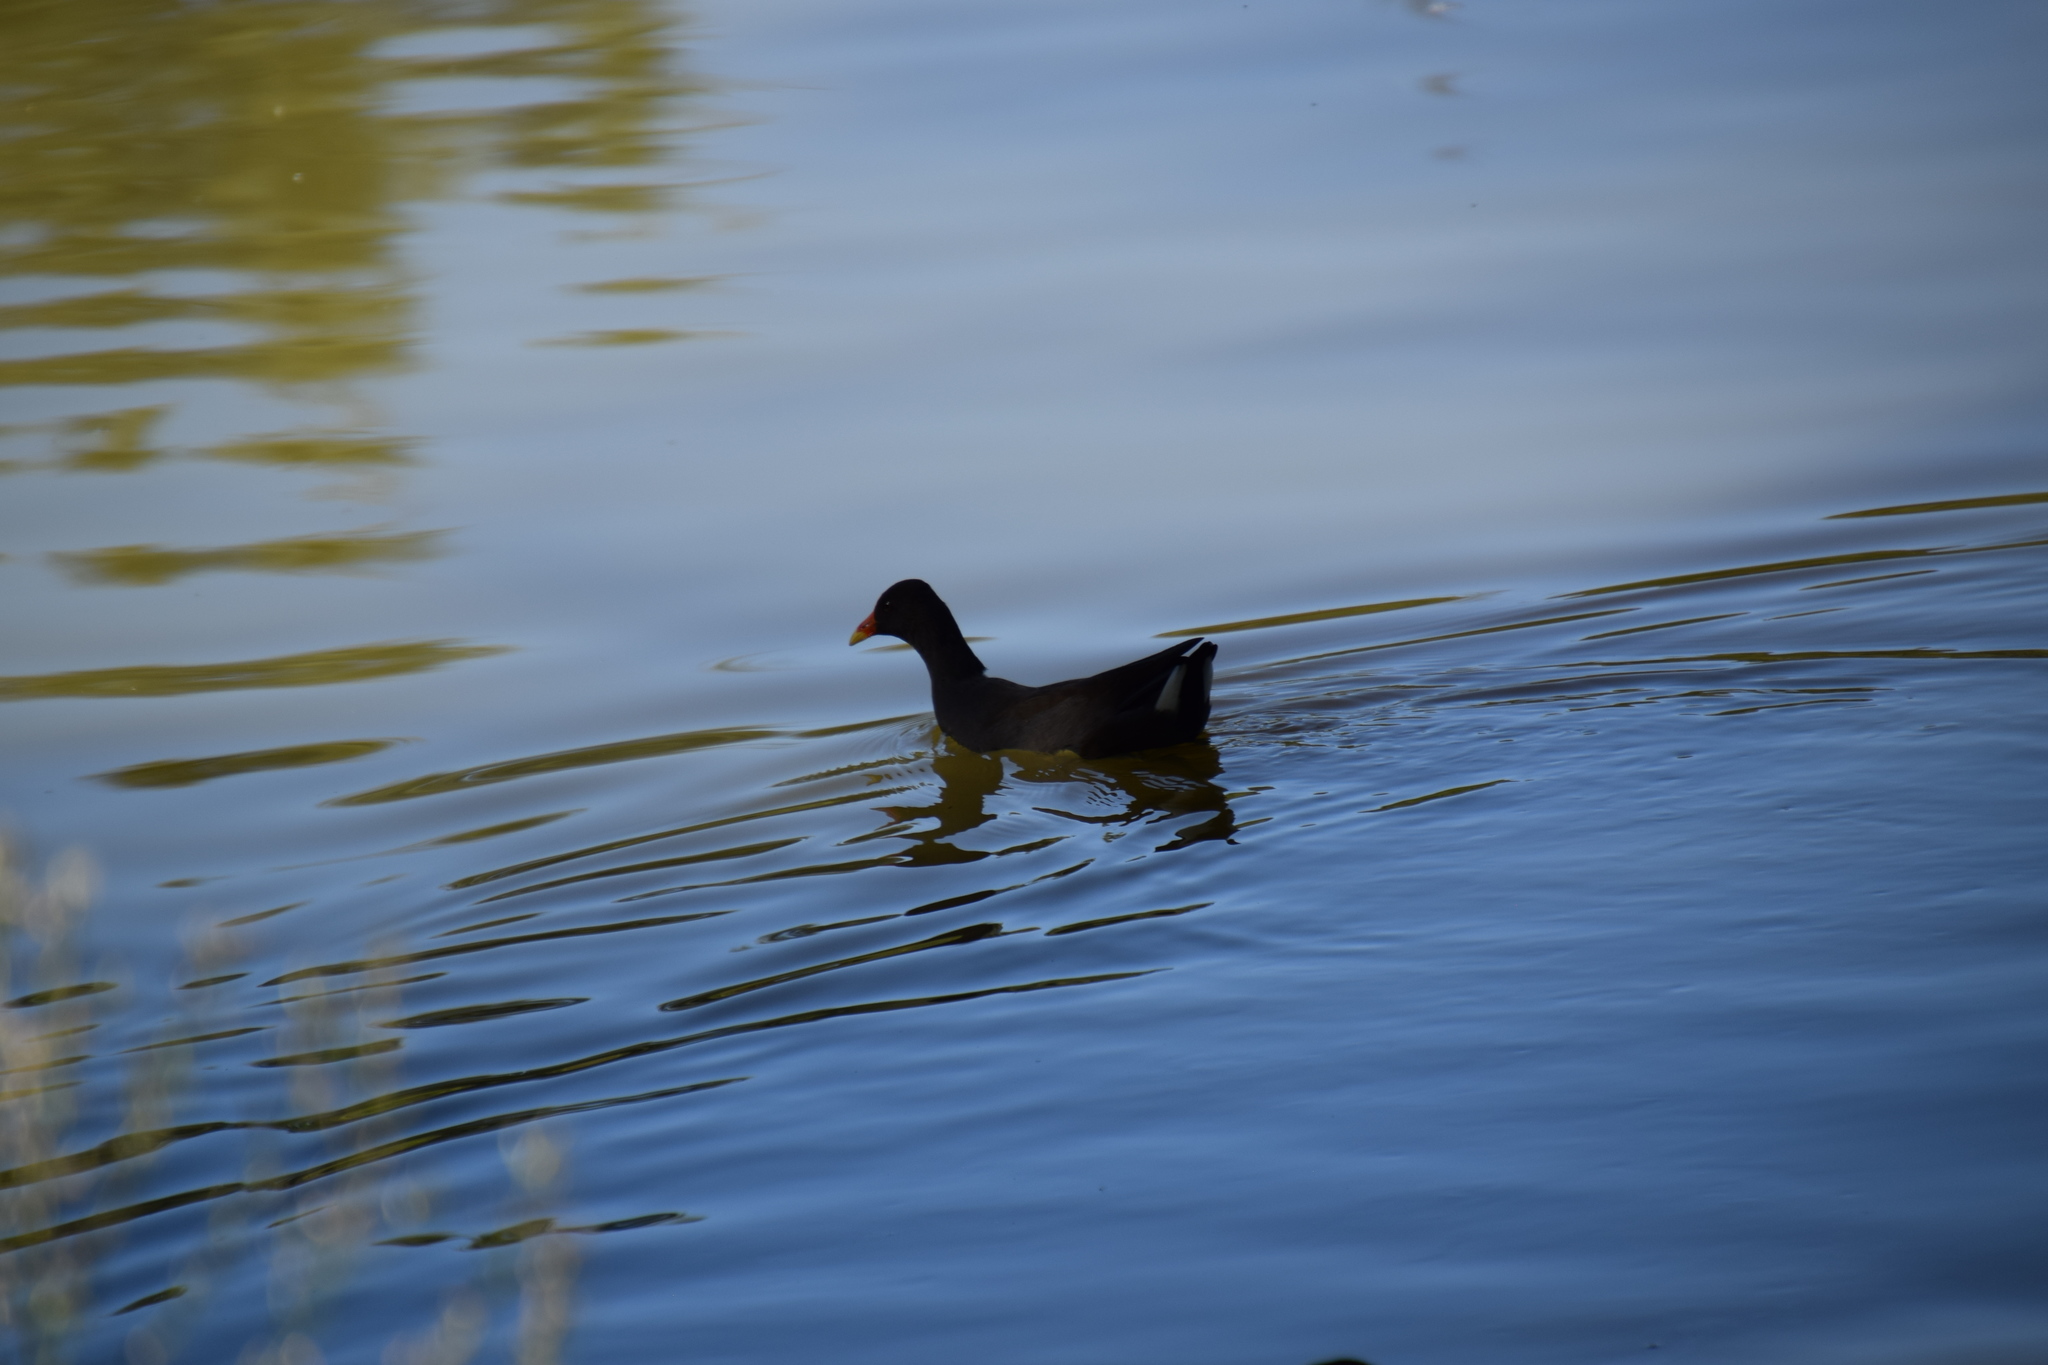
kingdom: Animalia
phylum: Chordata
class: Aves
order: Gruiformes
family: Rallidae
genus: Gallinula
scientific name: Gallinula tenebrosa
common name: Dusky moorhen
